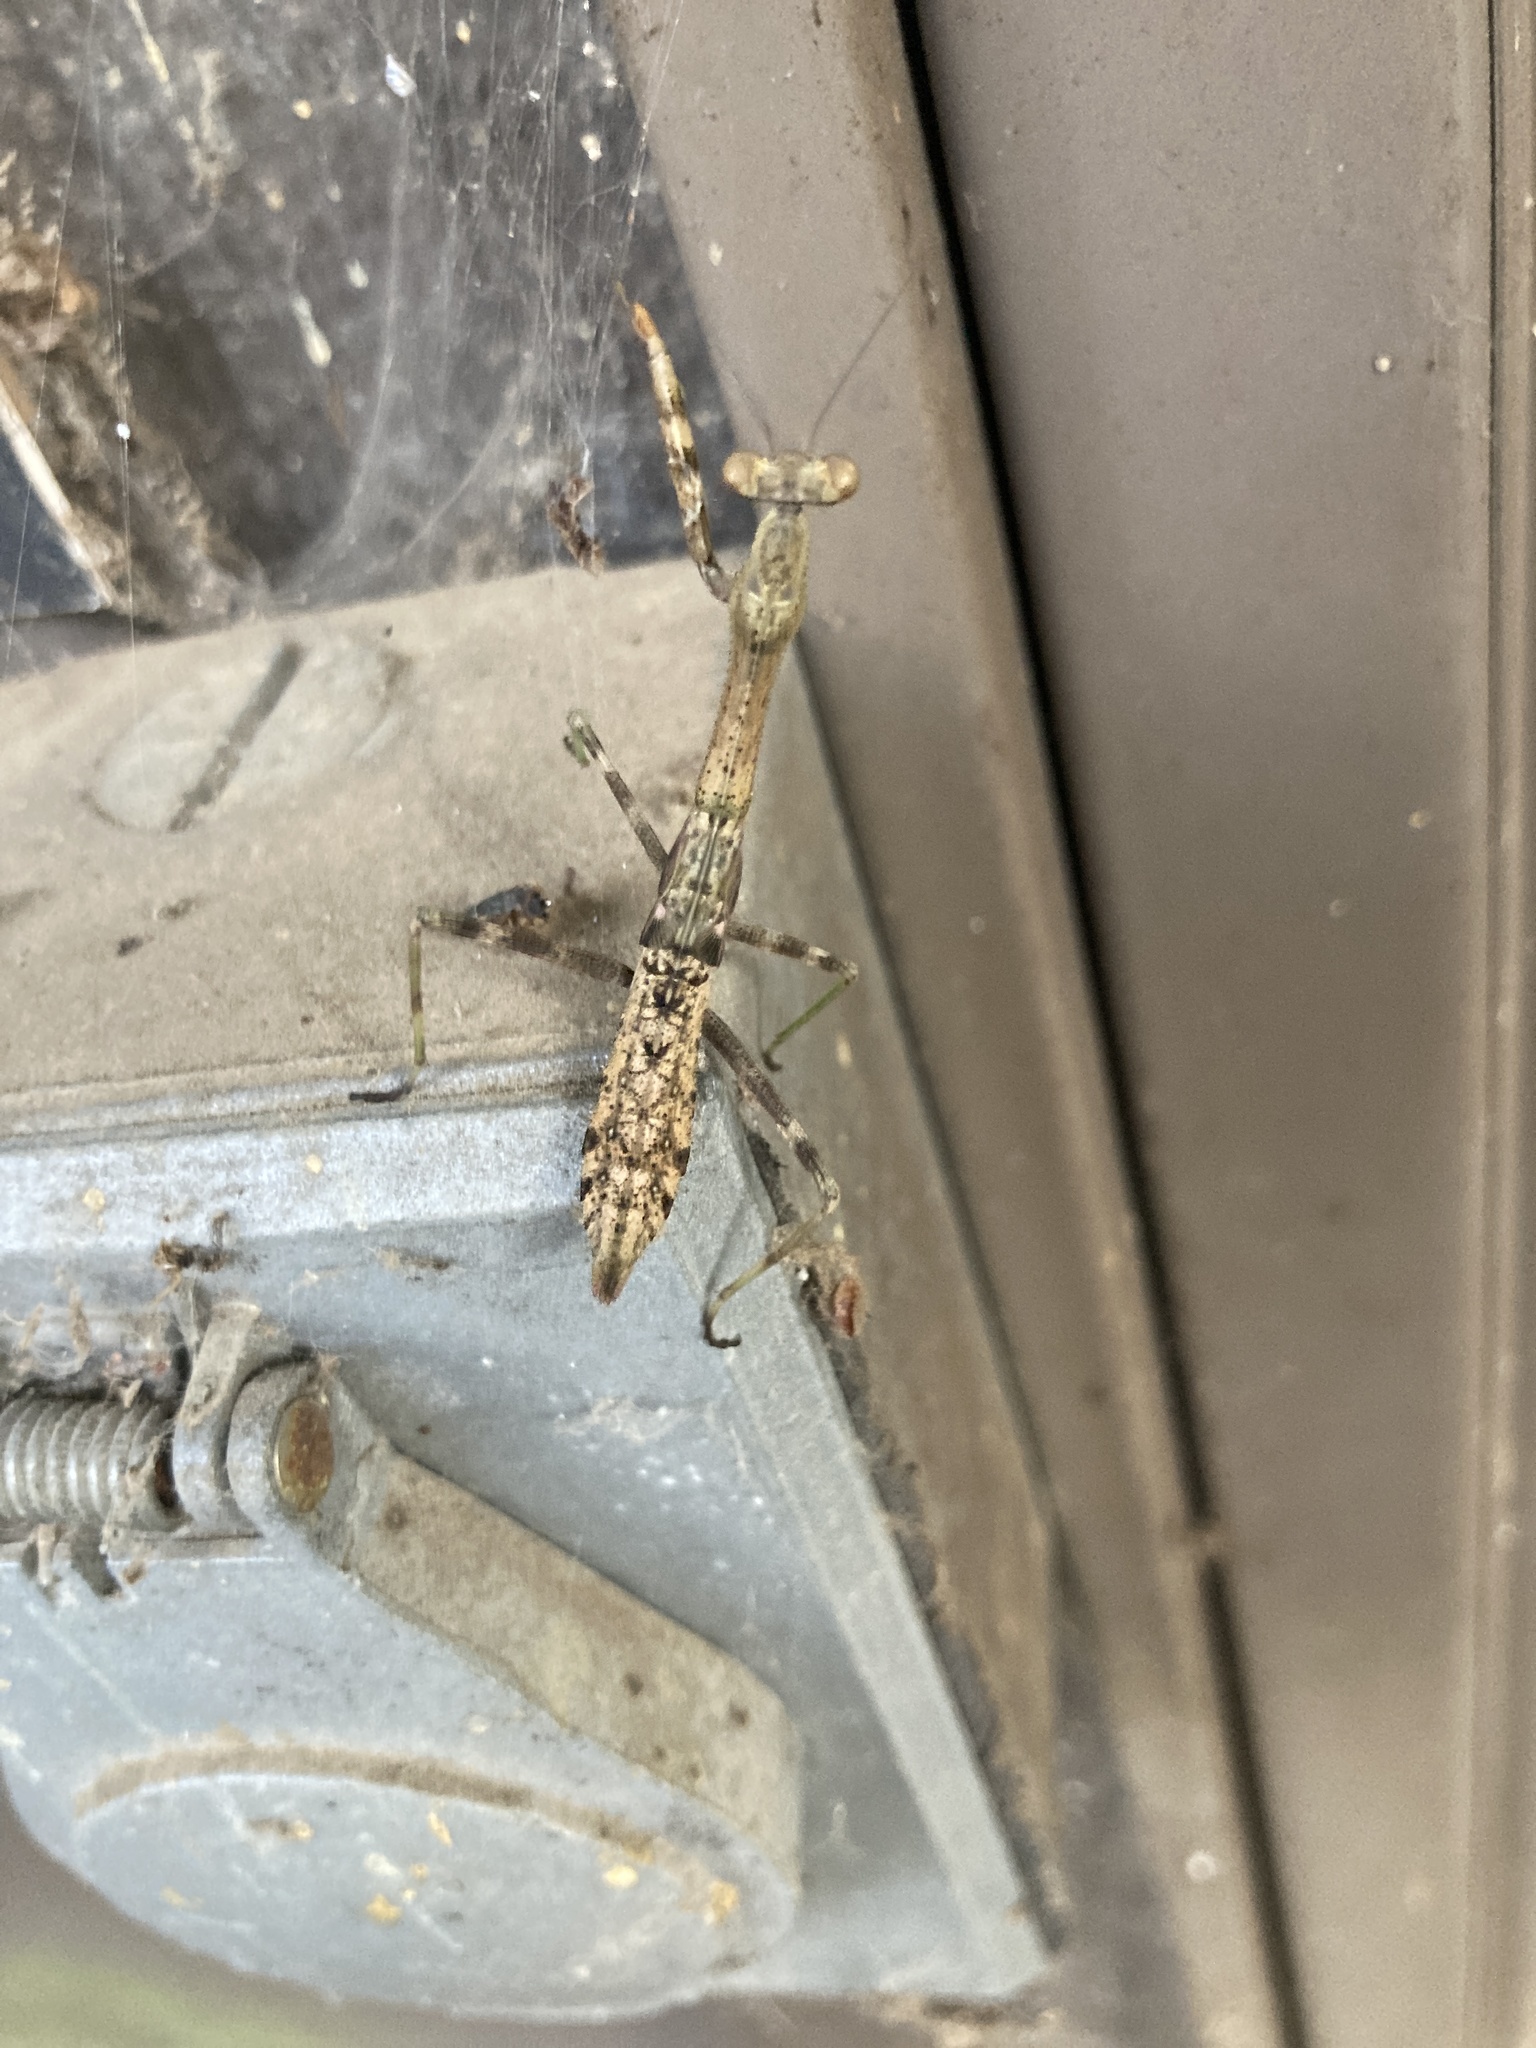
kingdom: Animalia
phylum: Arthropoda
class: Insecta
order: Mantodea
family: Mantidae
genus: Stagmomantis
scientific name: Stagmomantis carolina
